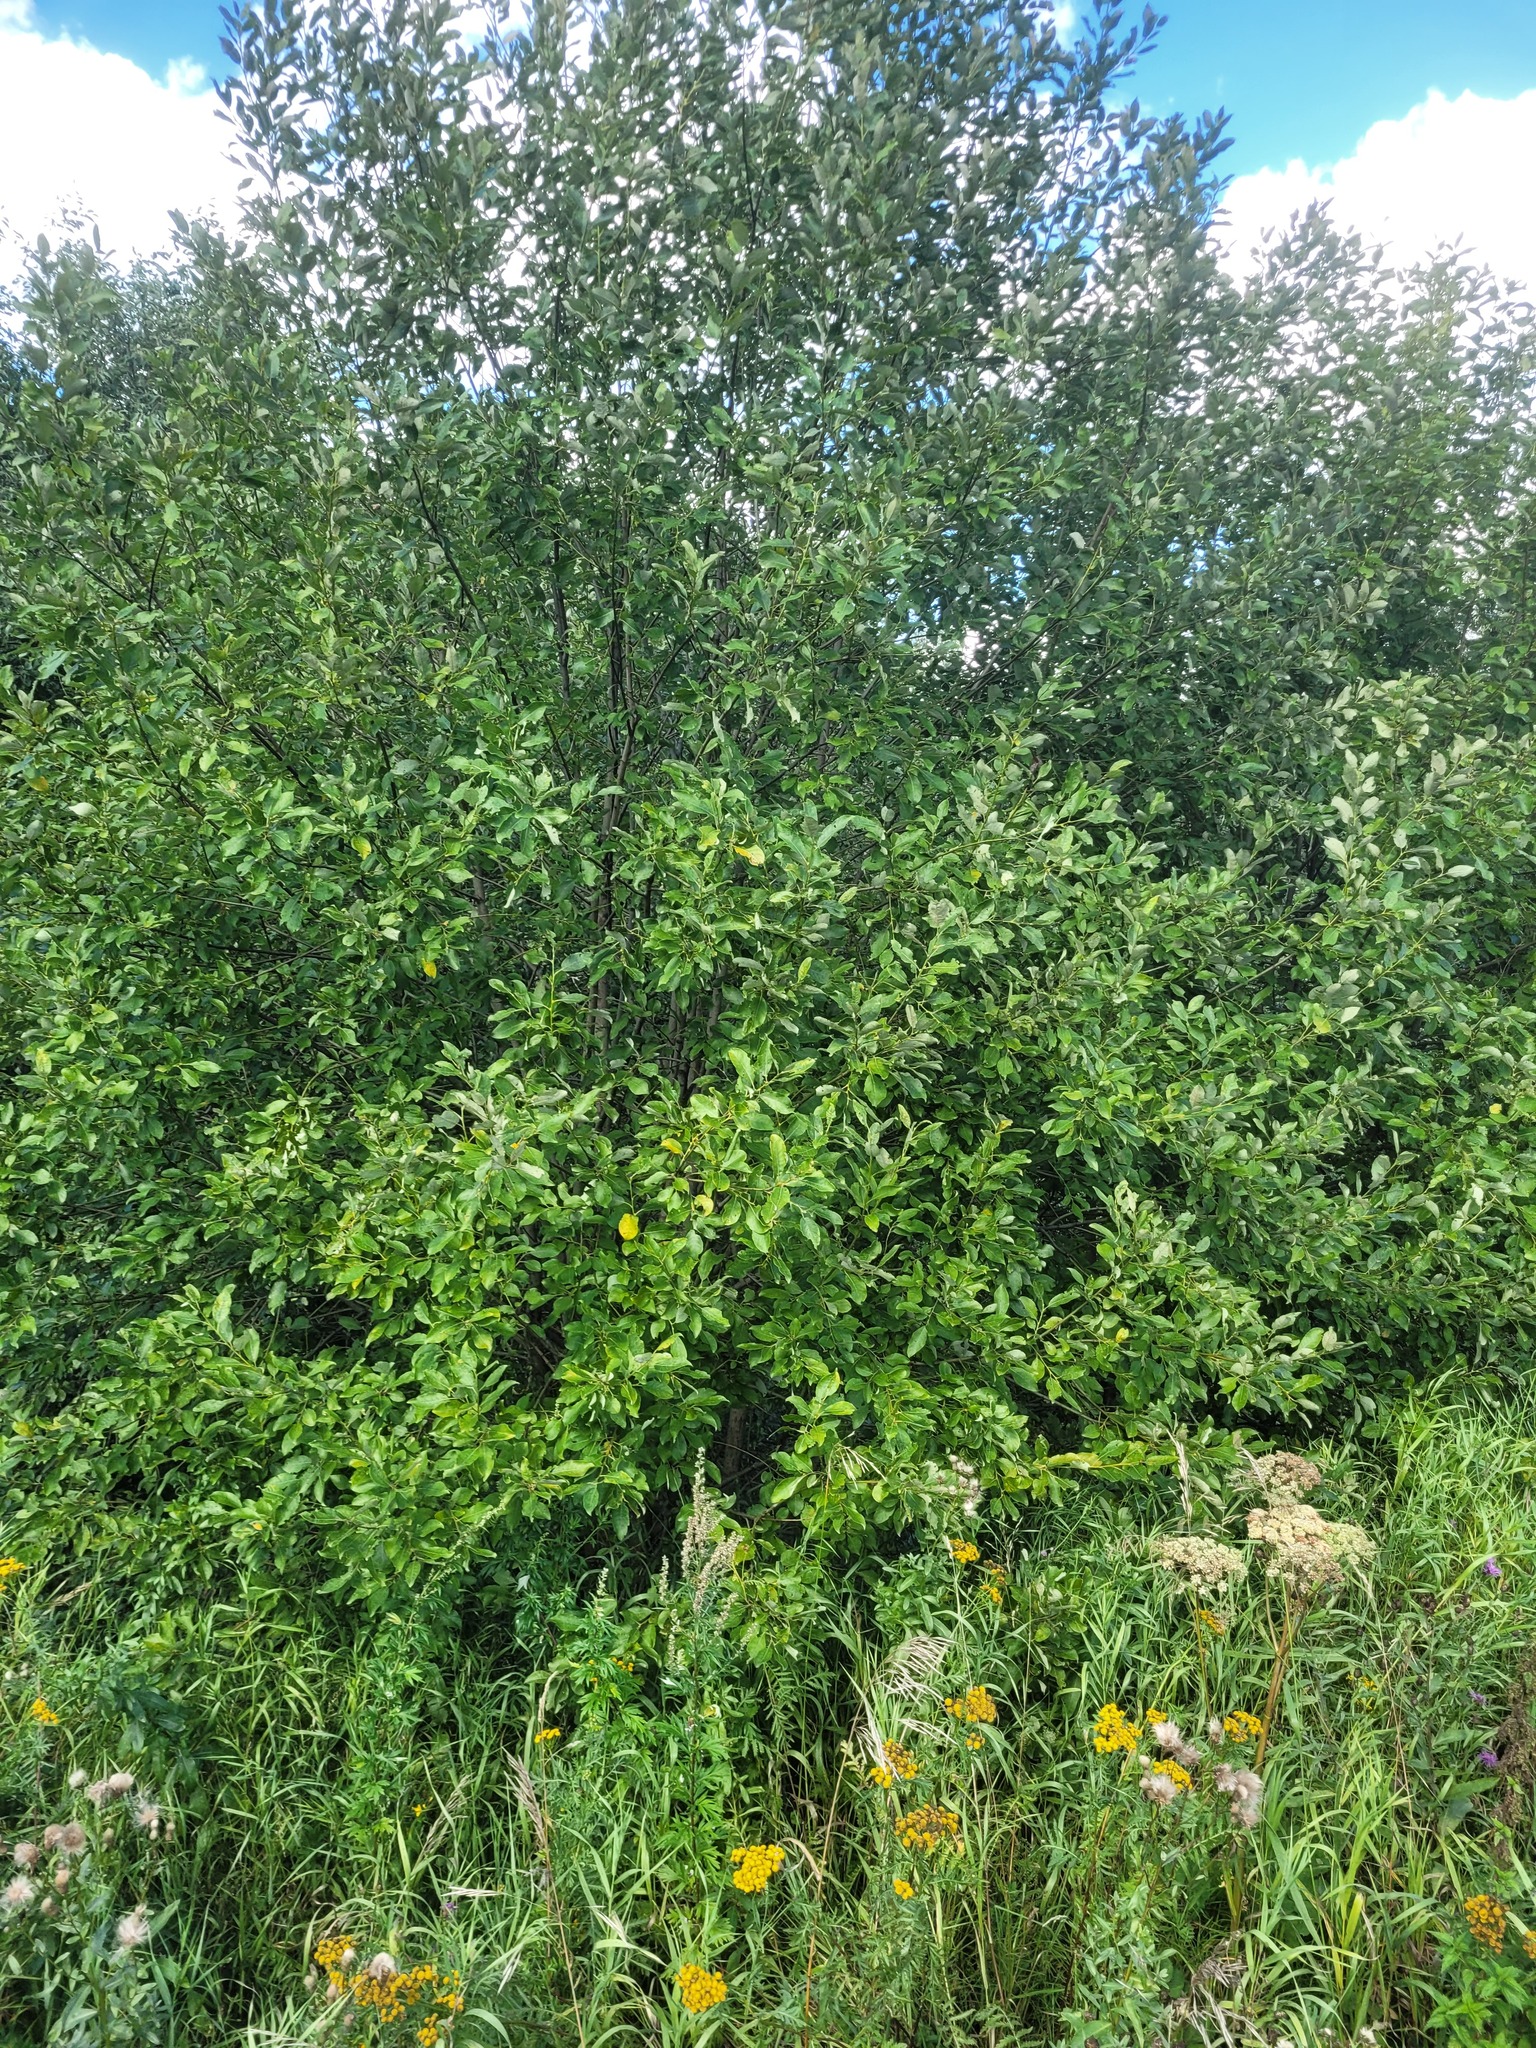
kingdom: Plantae
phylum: Tracheophyta
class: Magnoliopsida
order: Malpighiales
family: Salicaceae
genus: Salix
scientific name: Salix caprea
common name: Goat willow
